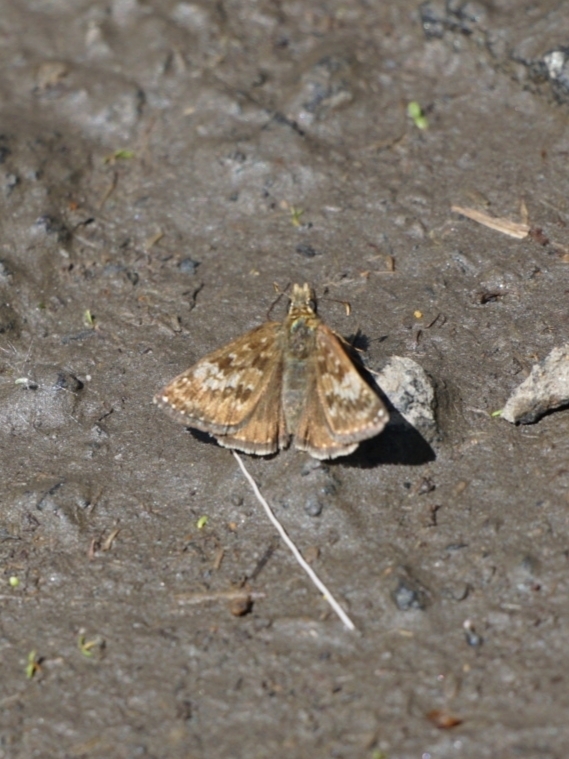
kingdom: Animalia
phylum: Arthropoda
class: Insecta
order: Lepidoptera
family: Hesperiidae
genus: Erynnis
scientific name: Erynnis tages
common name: Dingy skipper
